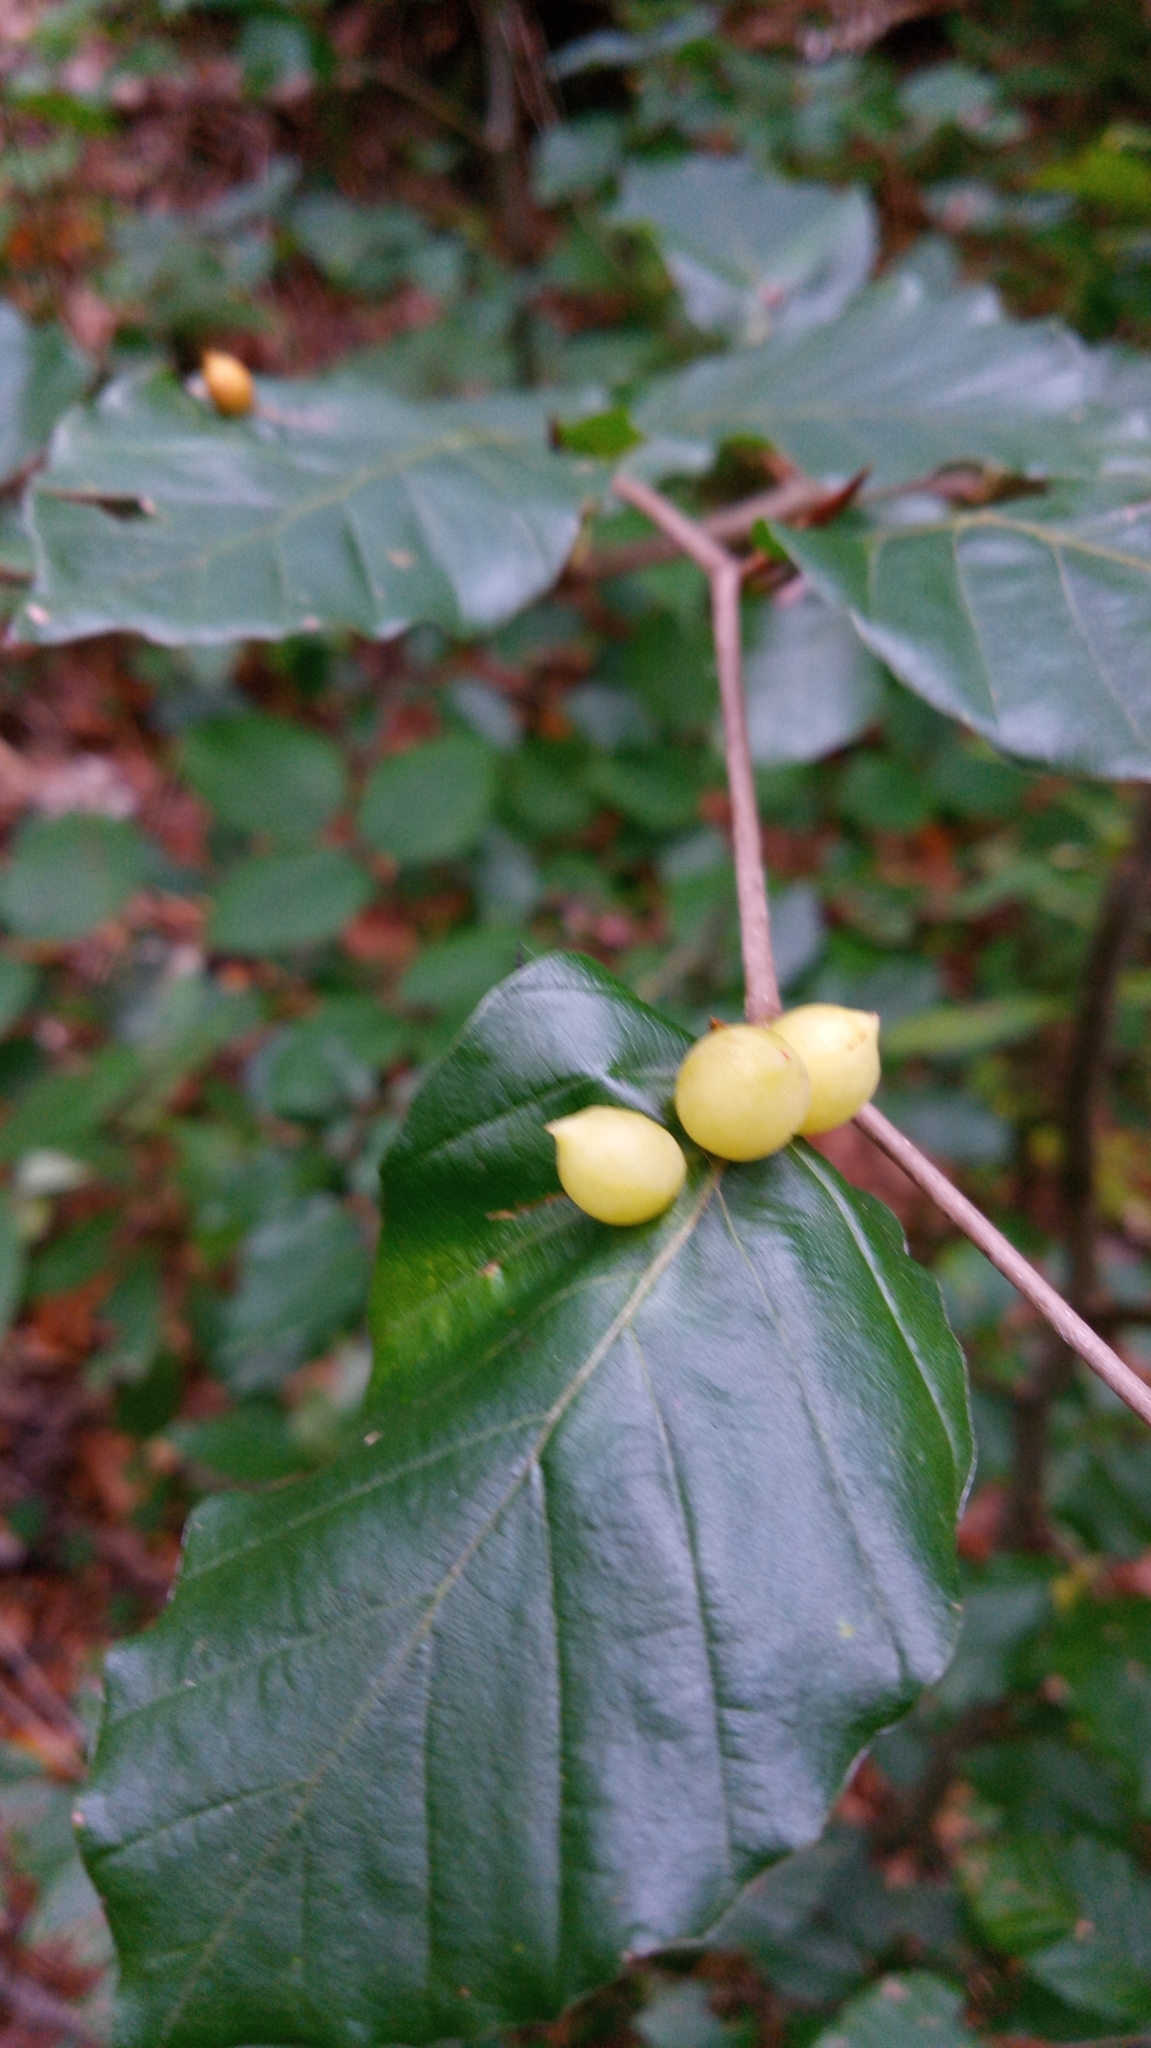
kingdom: Animalia
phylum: Arthropoda
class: Insecta
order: Diptera
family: Cecidomyiidae
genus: Mikiola
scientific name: Mikiola fagi
